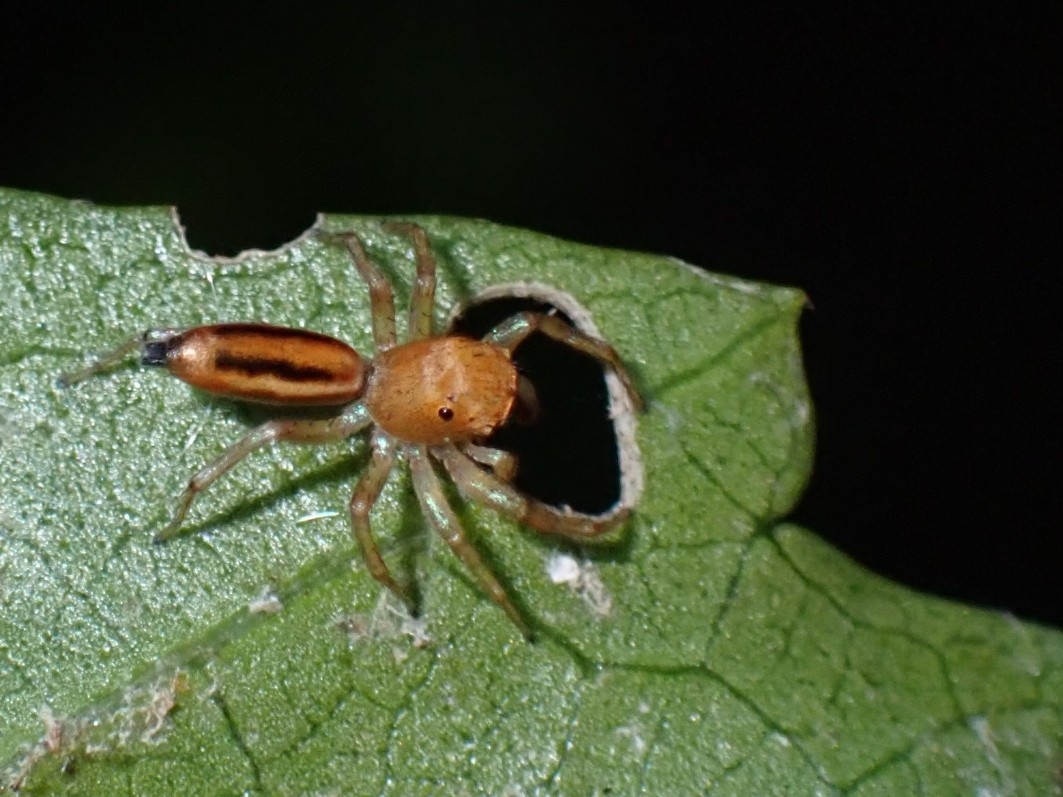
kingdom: Animalia
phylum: Arthropoda
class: Arachnida
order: Araneae
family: Salticidae
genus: Cosmophasis
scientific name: Cosmophasis lami
